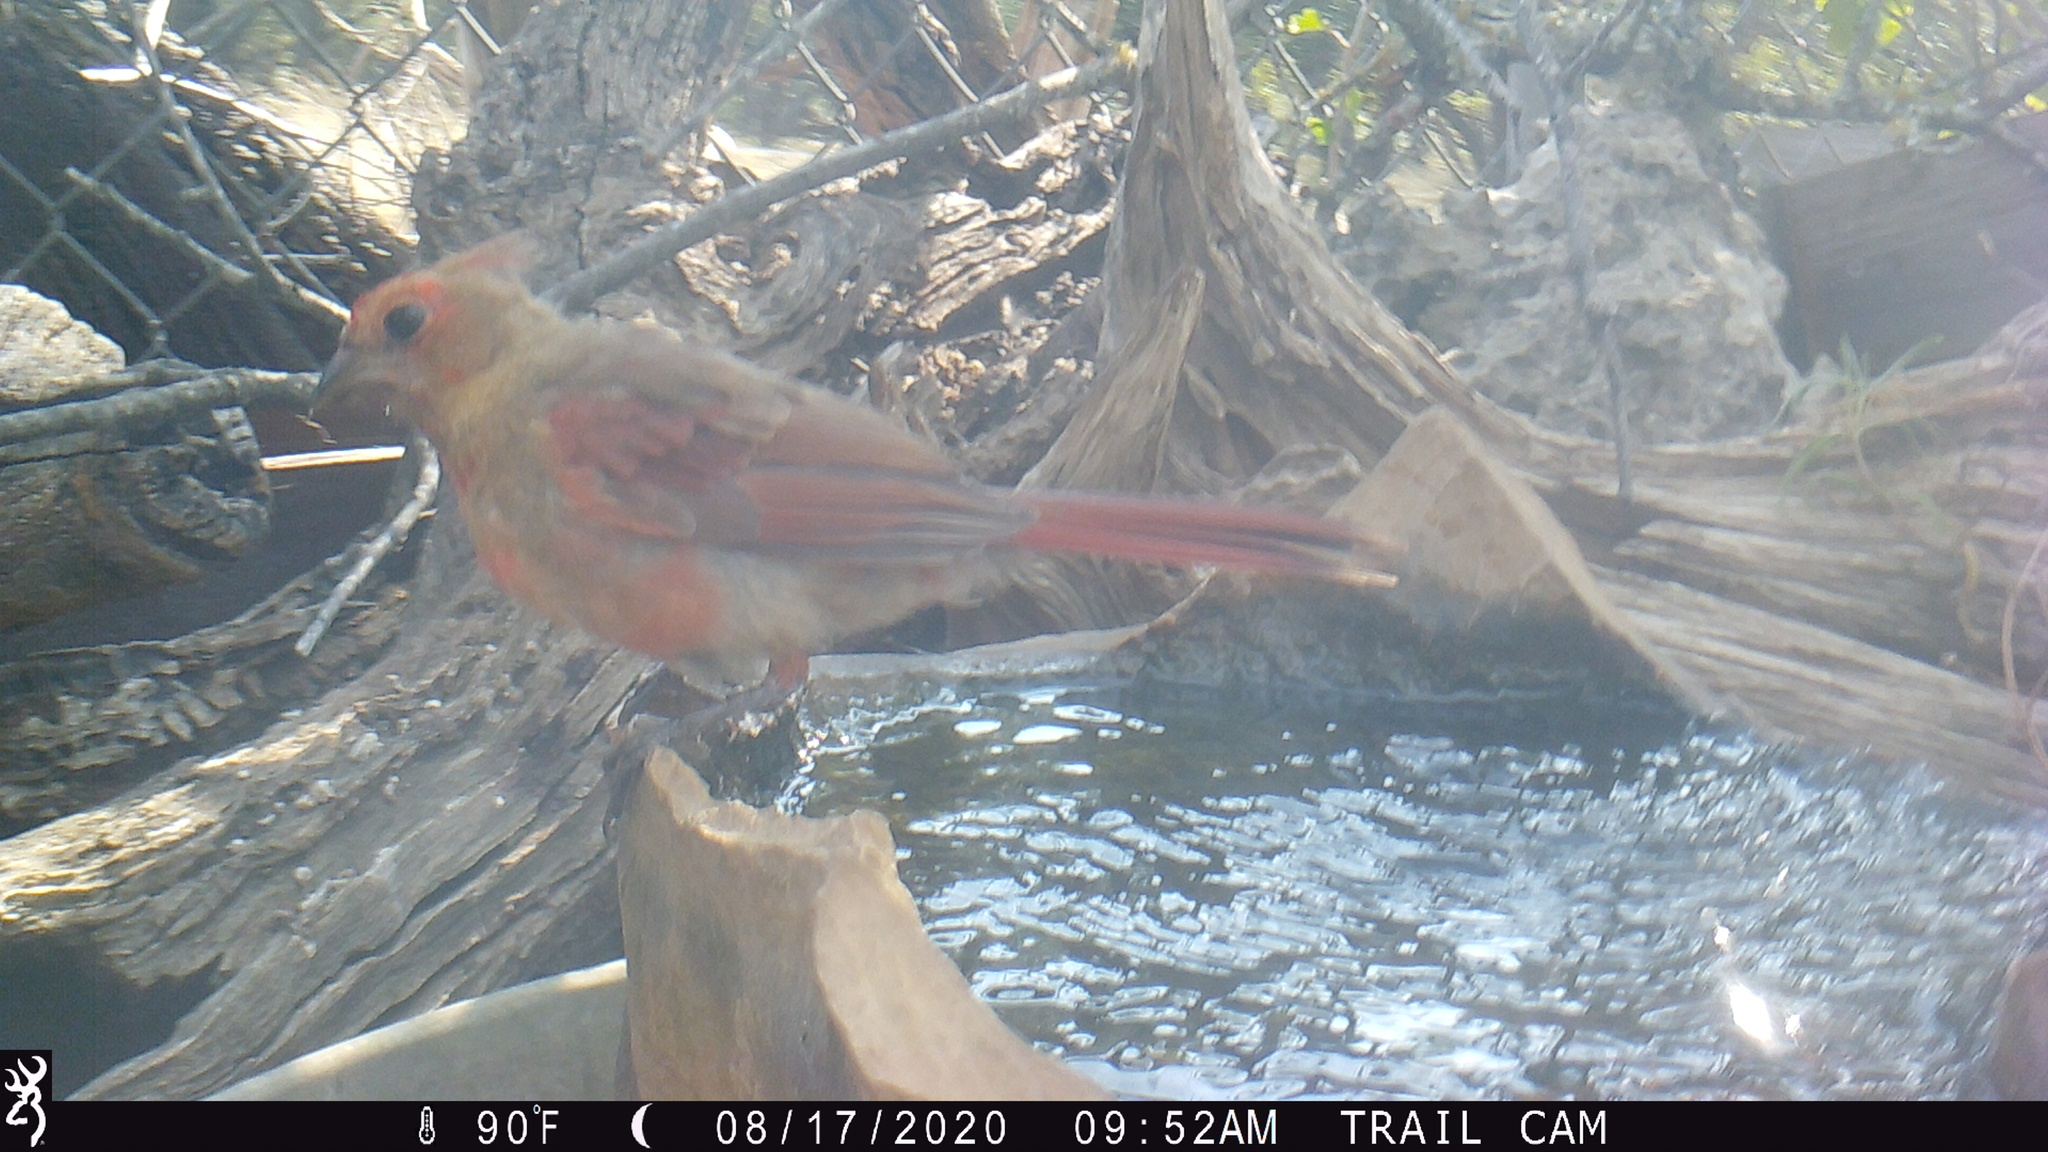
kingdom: Animalia
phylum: Chordata
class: Aves
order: Passeriformes
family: Cardinalidae
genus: Cardinalis
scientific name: Cardinalis cardinalis
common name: Northern cardinal
